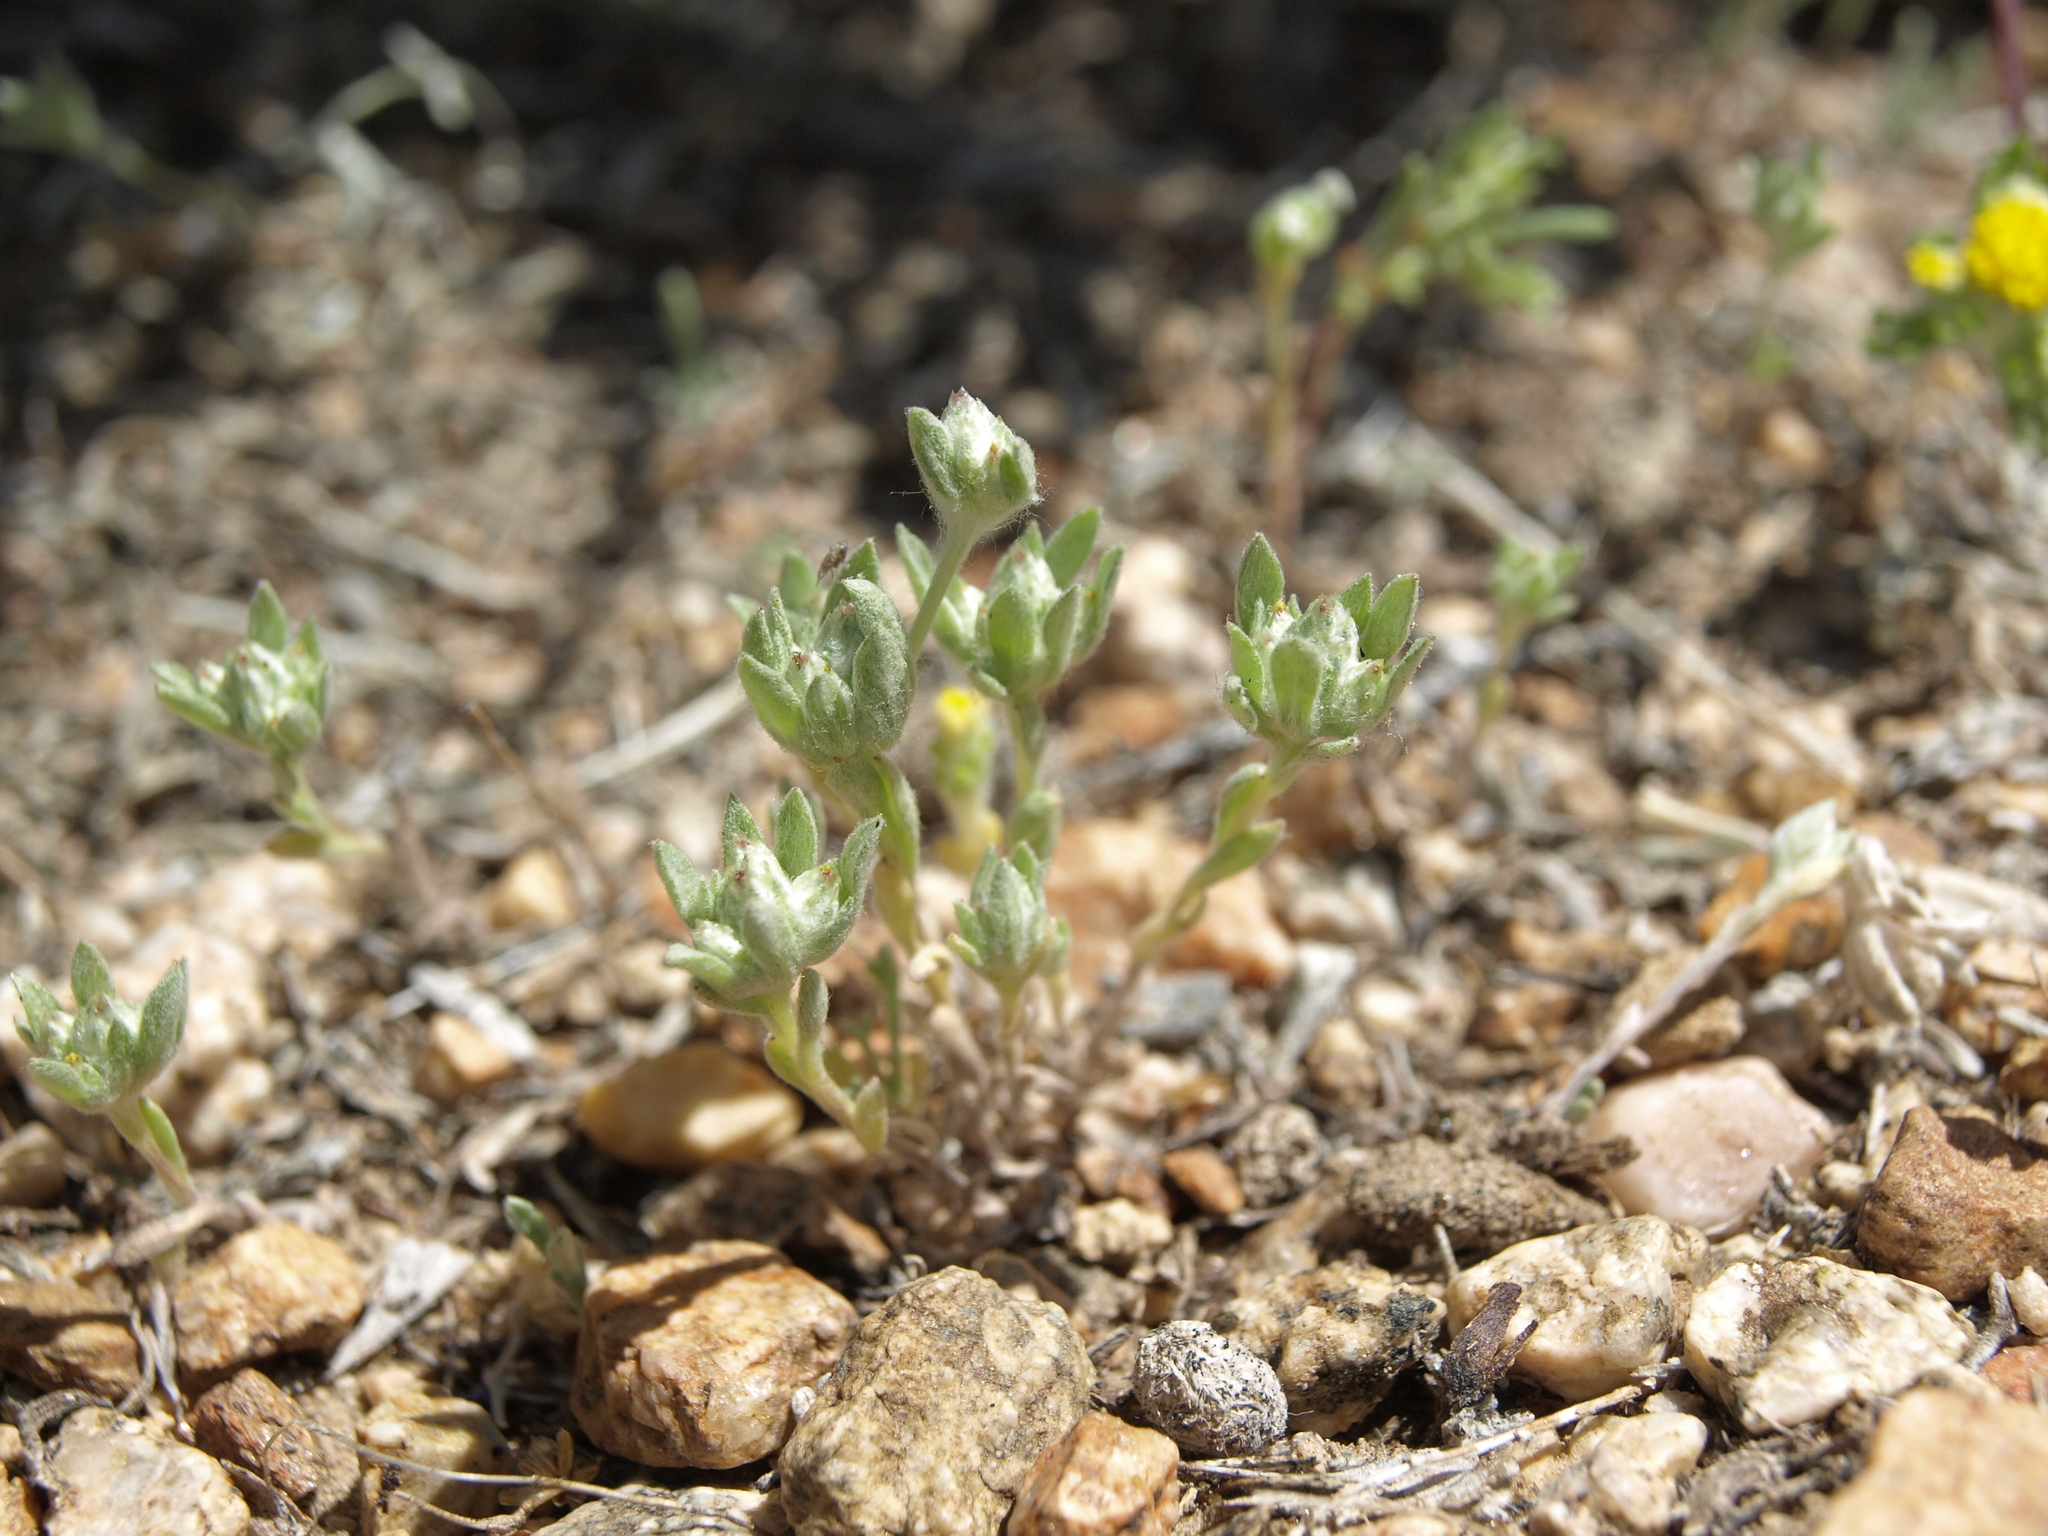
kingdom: Plantae
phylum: Tracheophyta
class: Magnoliopsida
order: Asterales
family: Asteraceae
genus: Stylocline
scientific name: Stylocline psilocarphoides
